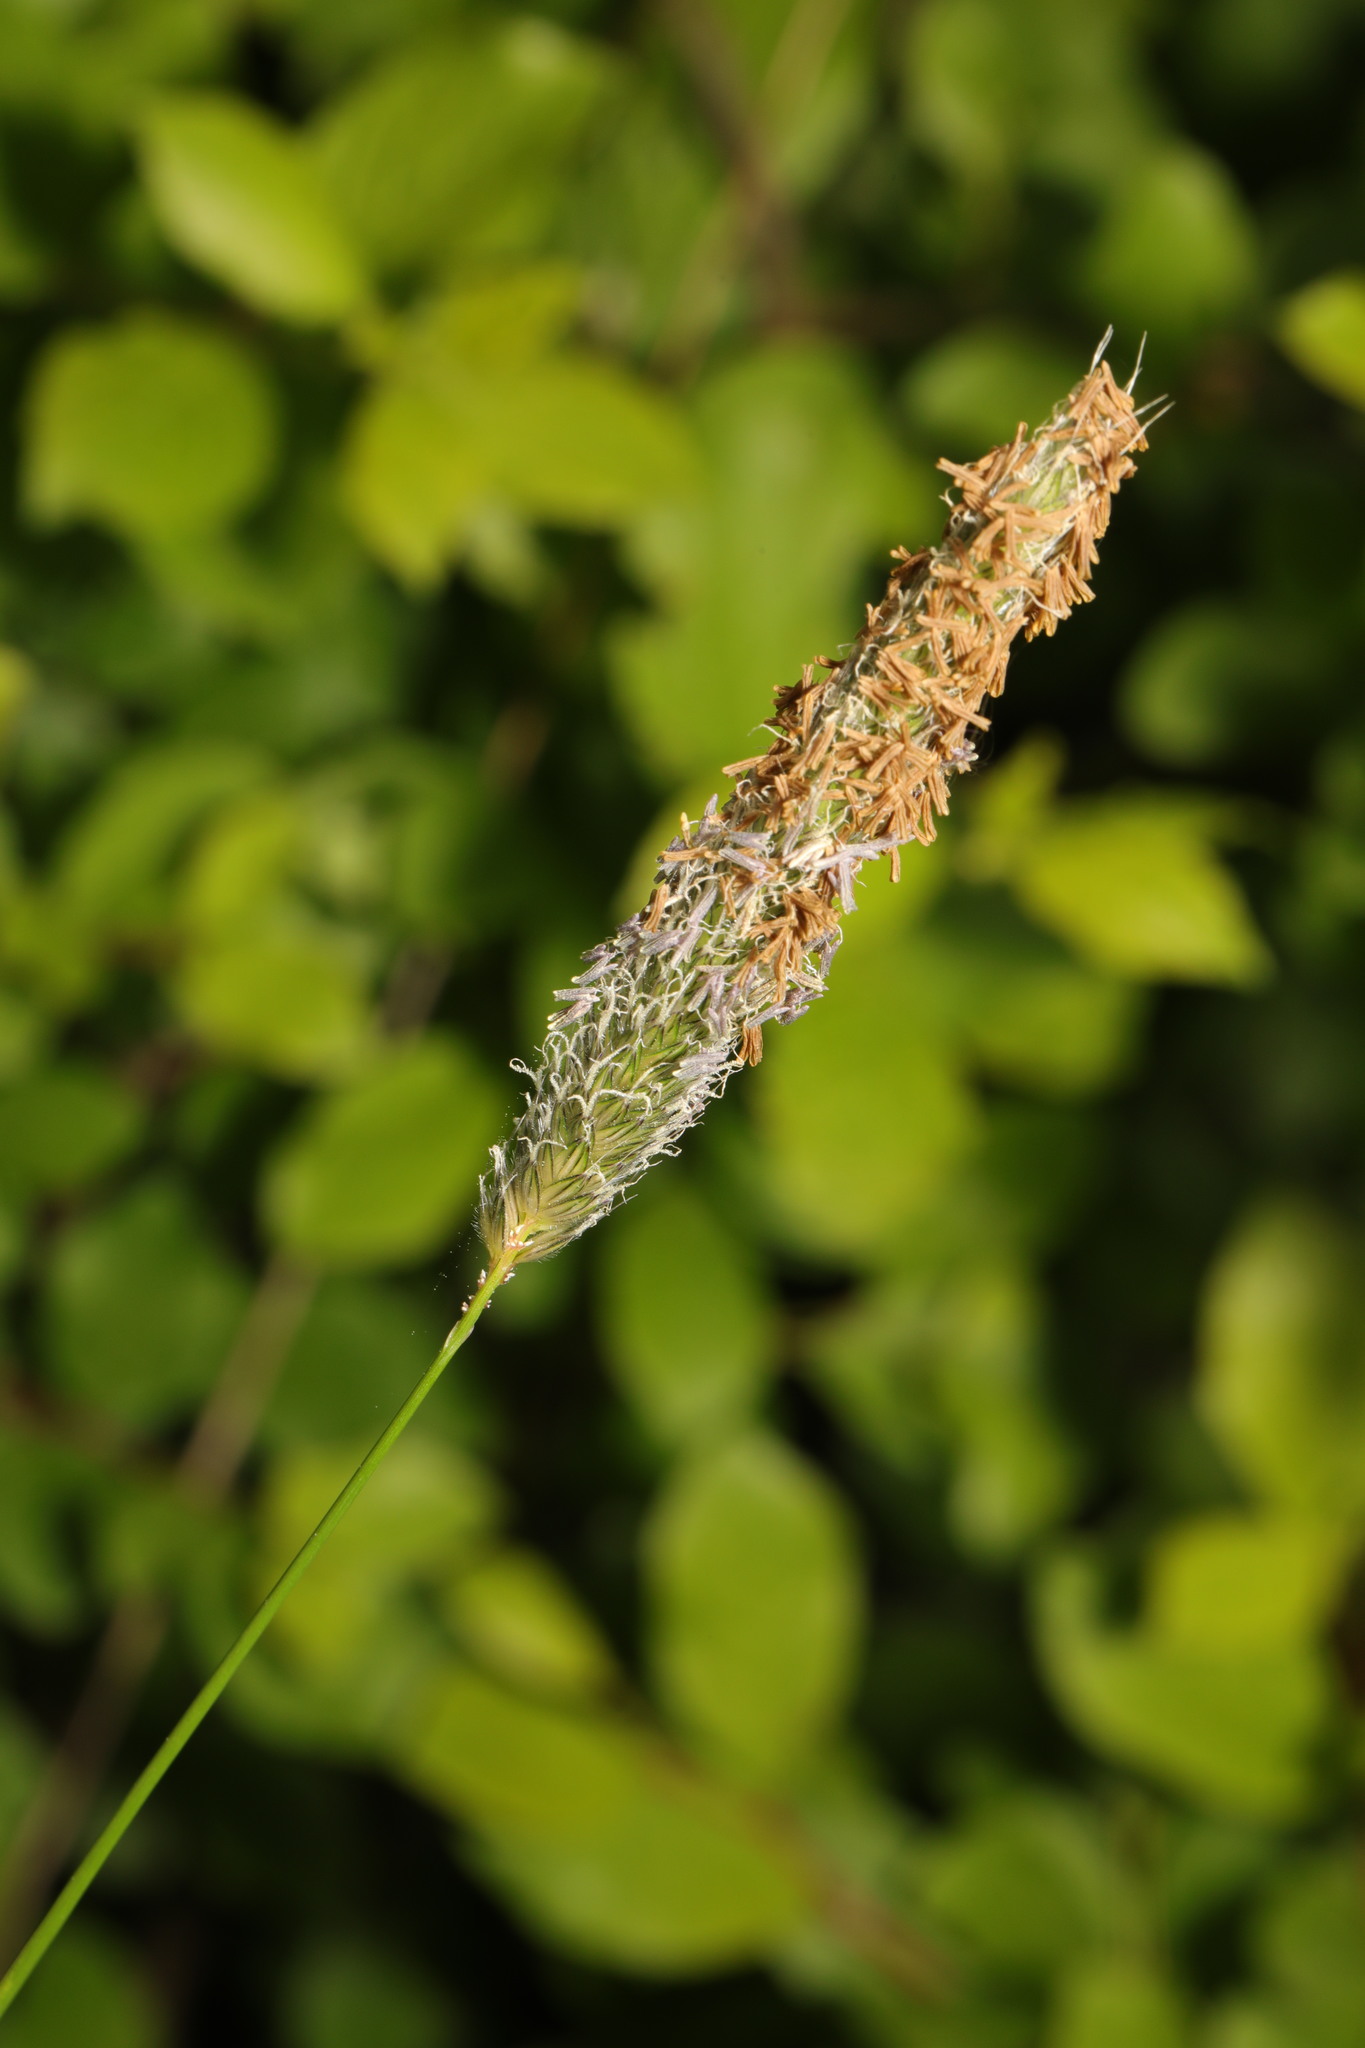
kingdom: Plantae
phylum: Tracheophyta
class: Liliopsida
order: Poales
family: Poaceae
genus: Alopecurus
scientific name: Alopecurus pratensis
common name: Meadow foxtail
